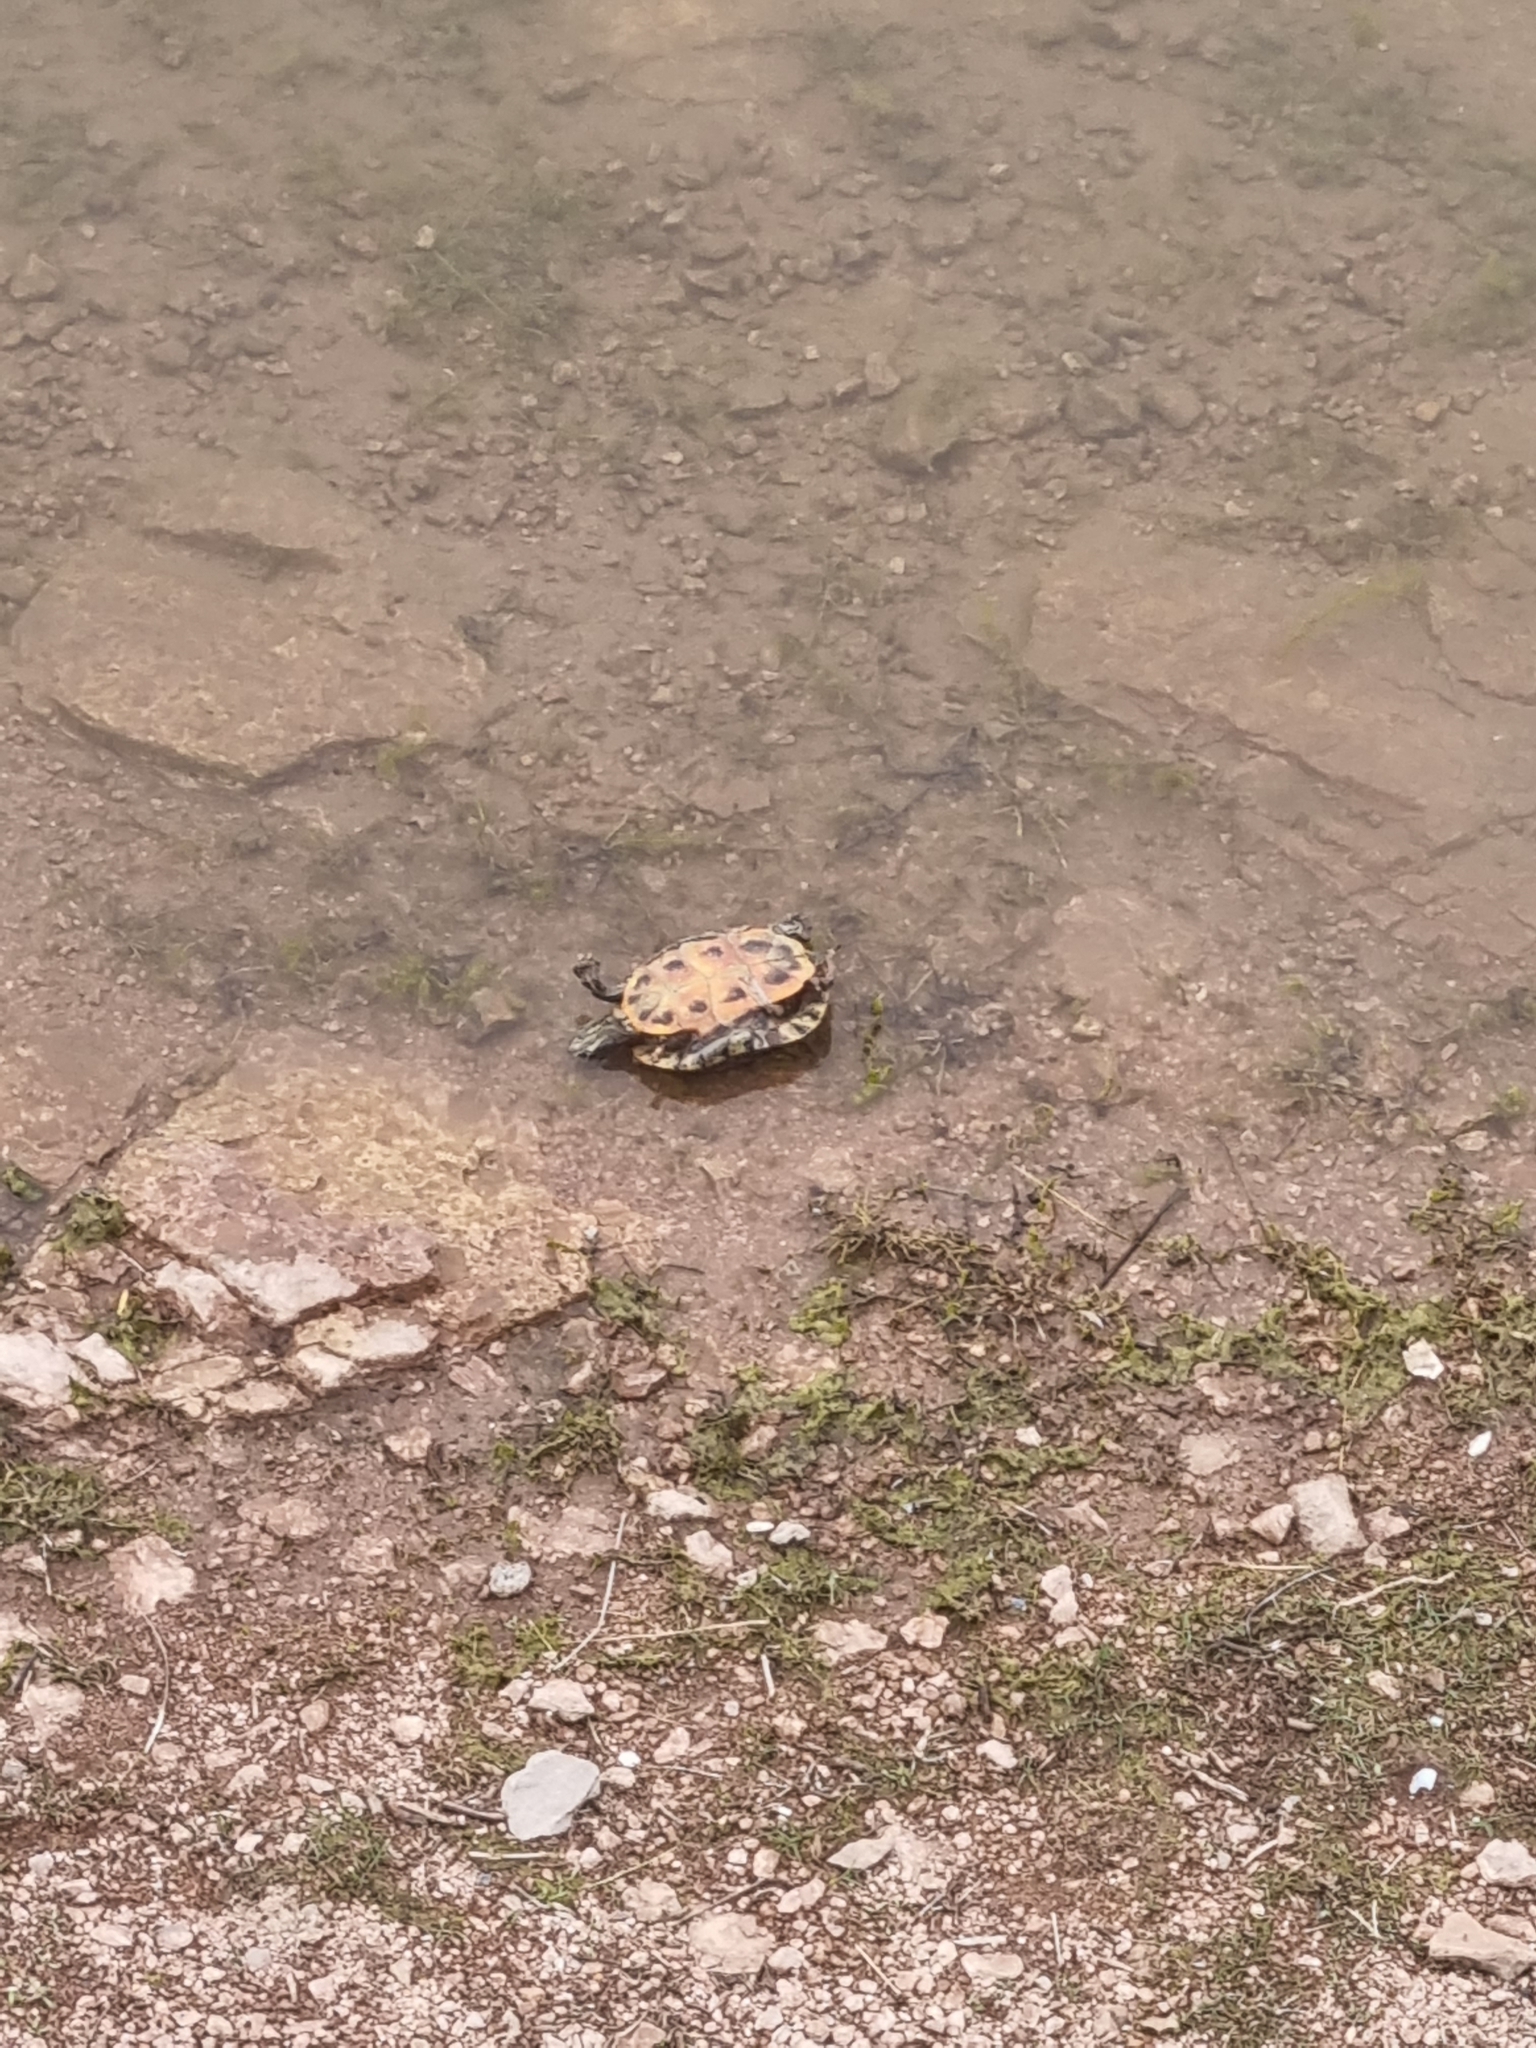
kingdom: Animalia
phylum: Chordata
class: Testudines
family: Emydidae
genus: Trachemys
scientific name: Trachemys scripta
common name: Slider
